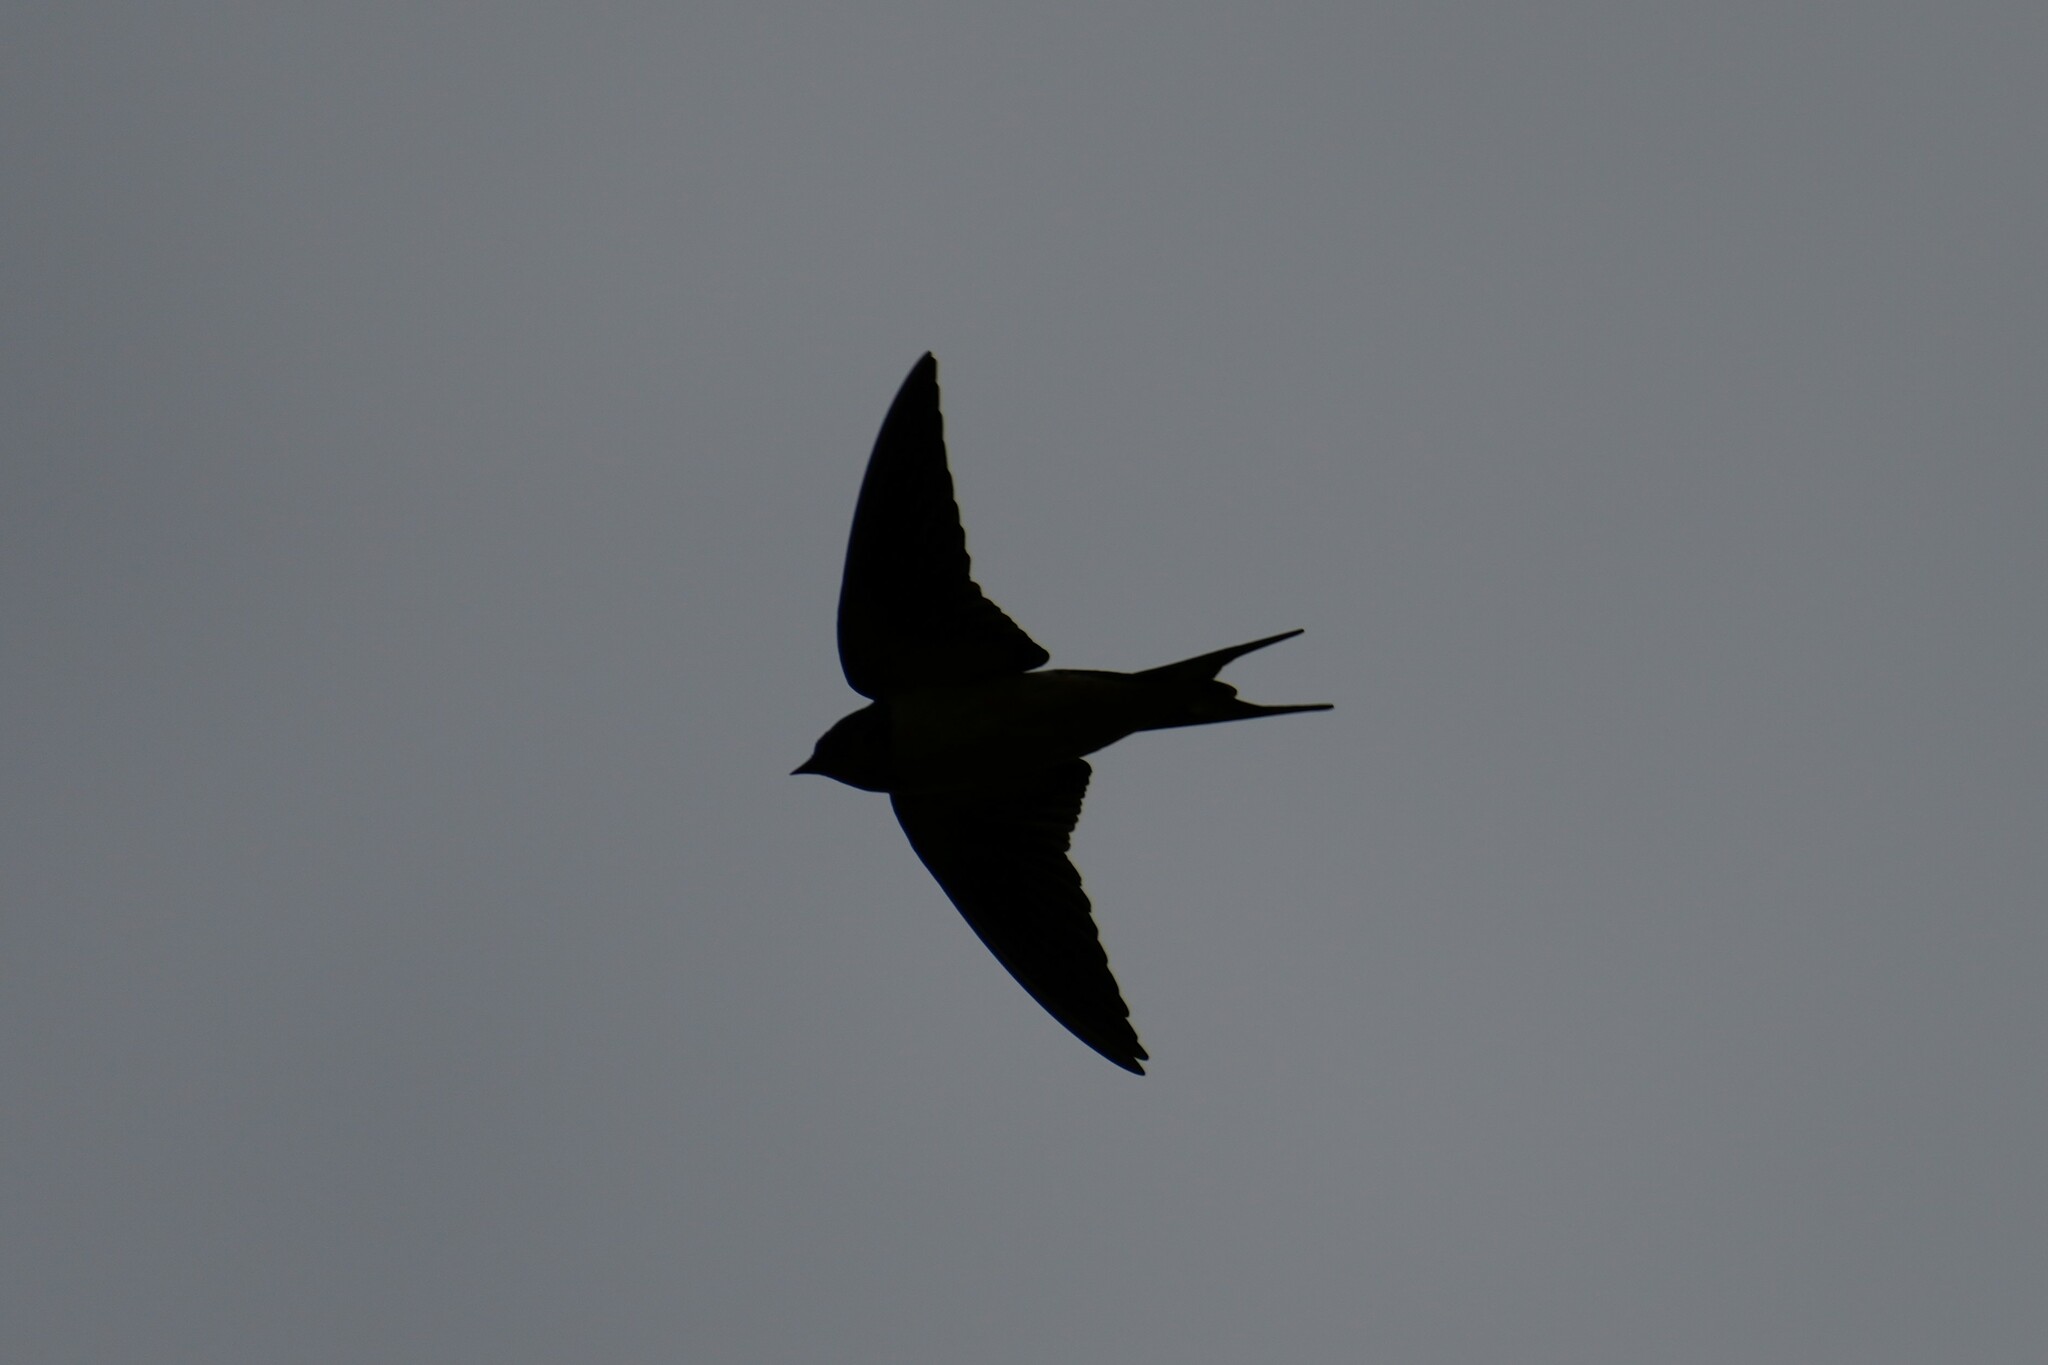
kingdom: Animalia
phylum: Chordata
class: Aves
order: Passeriformes
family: Hirundinidae
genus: Hirundo
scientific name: Hirundo rustica
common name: Barn swallow
